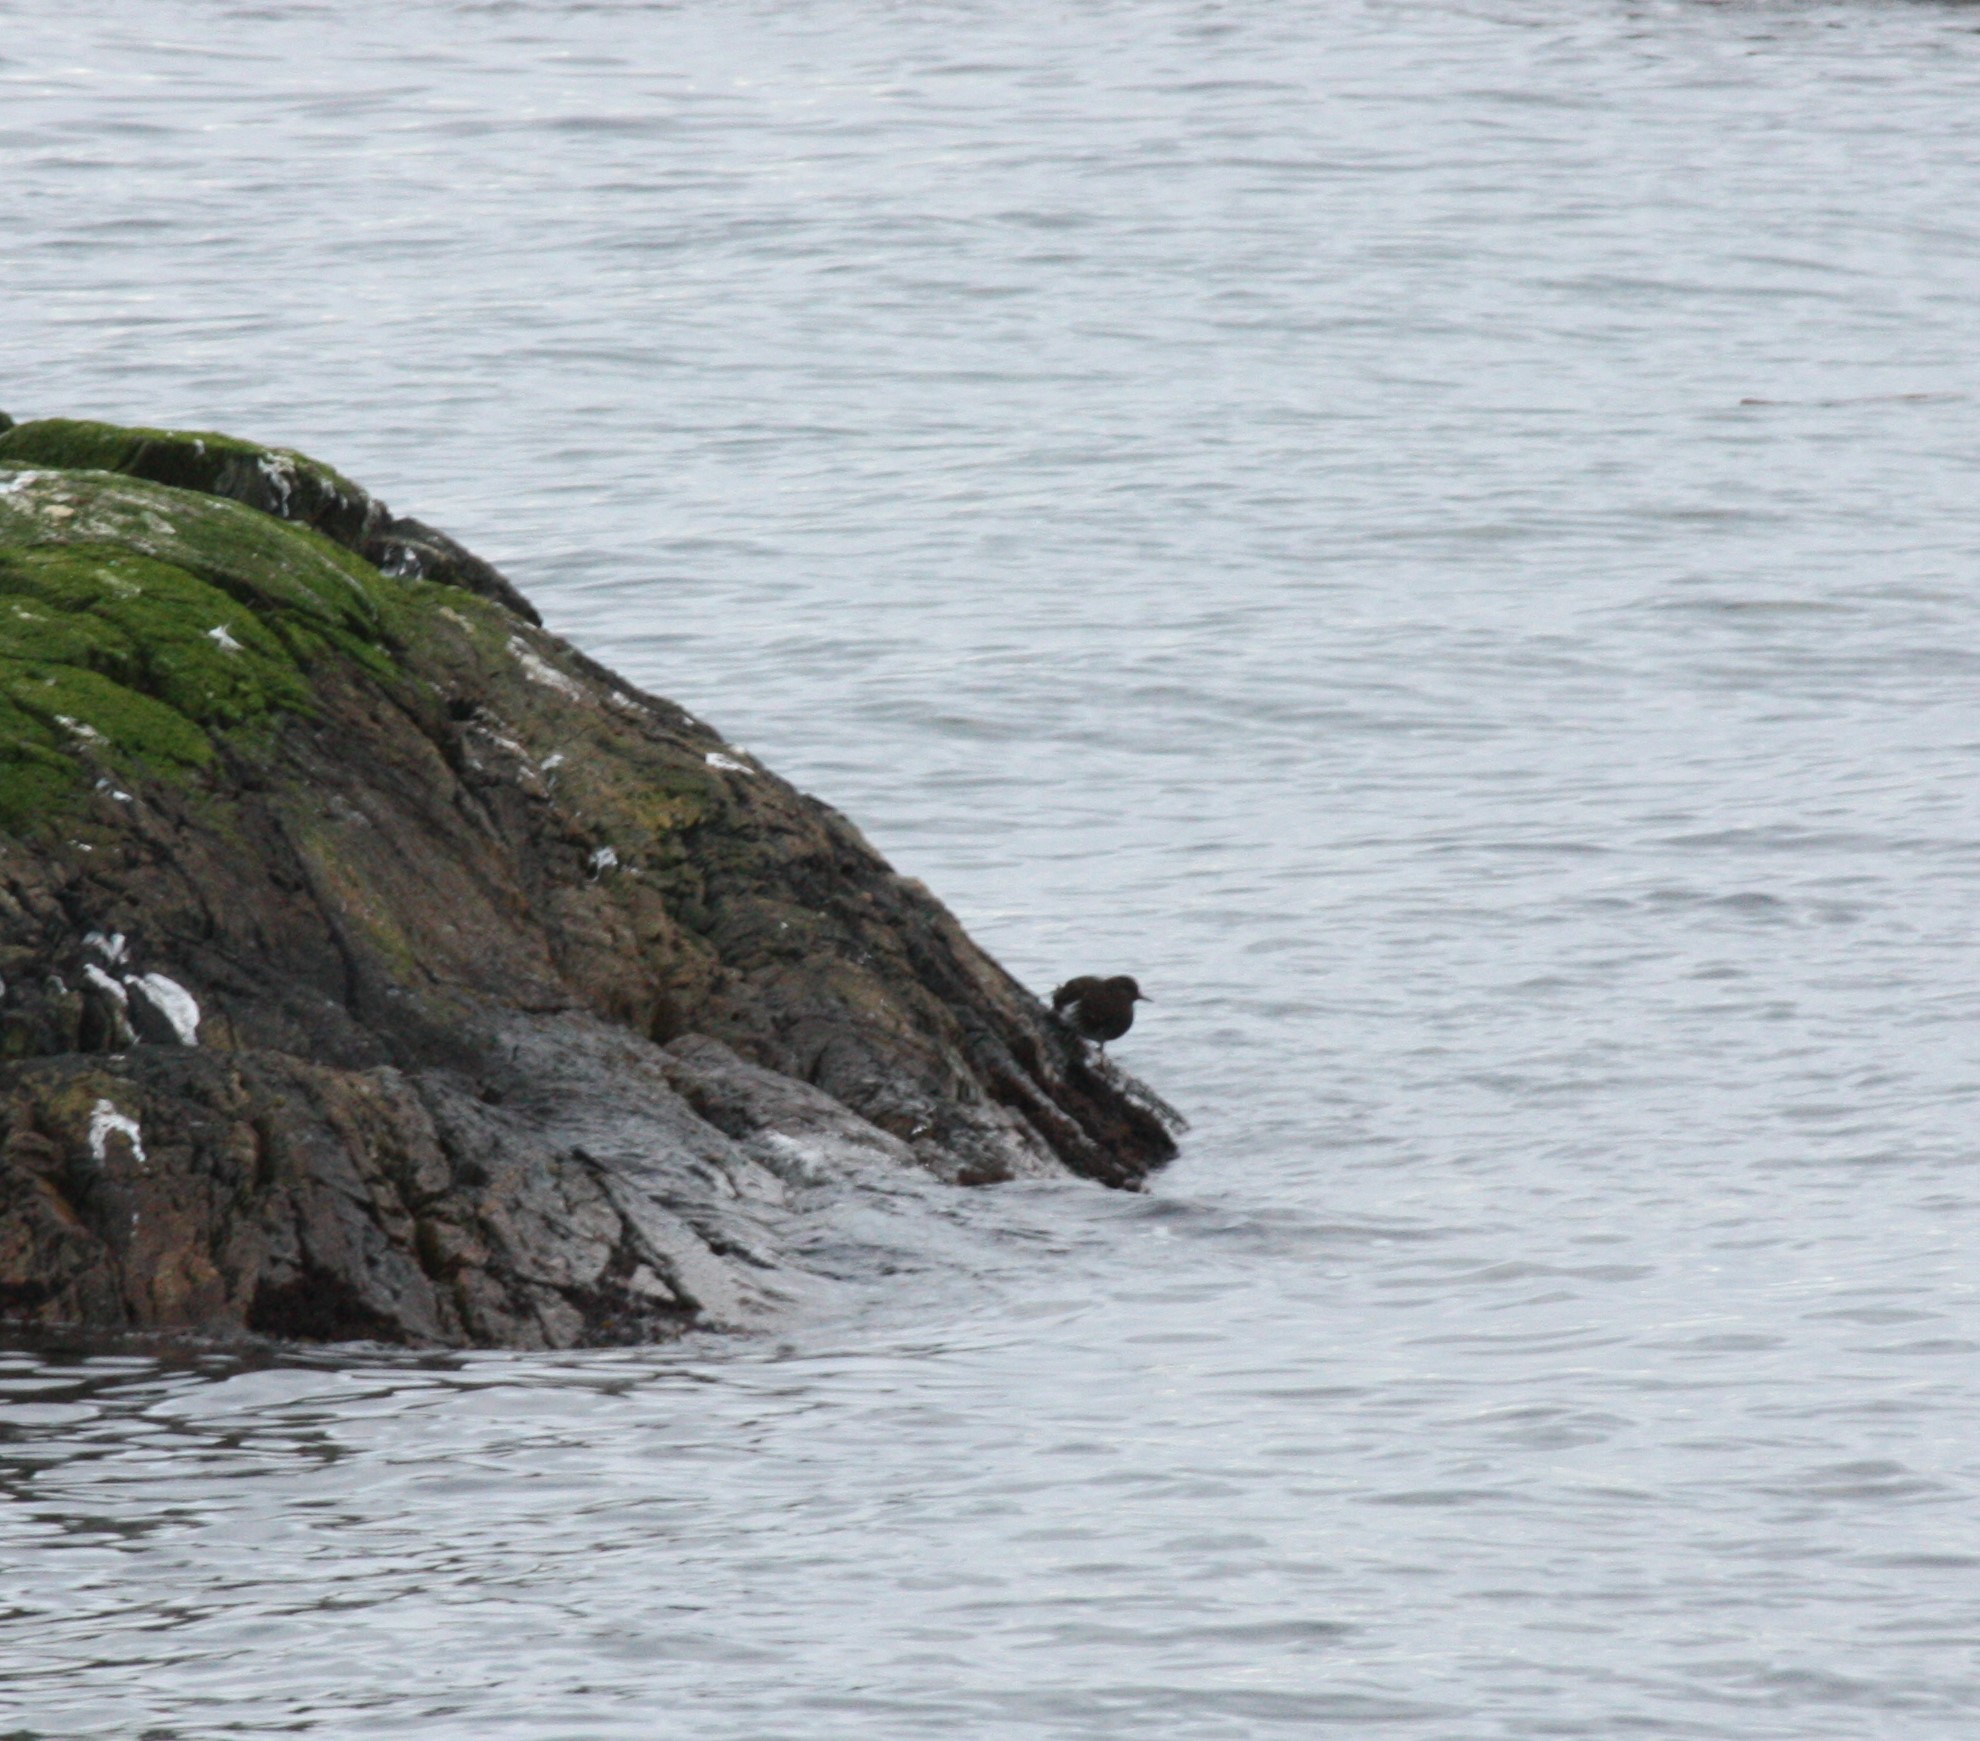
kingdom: Animalia
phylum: Chordata
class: Aves
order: Charadriiformes
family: Scolopacidae
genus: Arenaria
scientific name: Arenaria melanocephala
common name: Black turnstone
